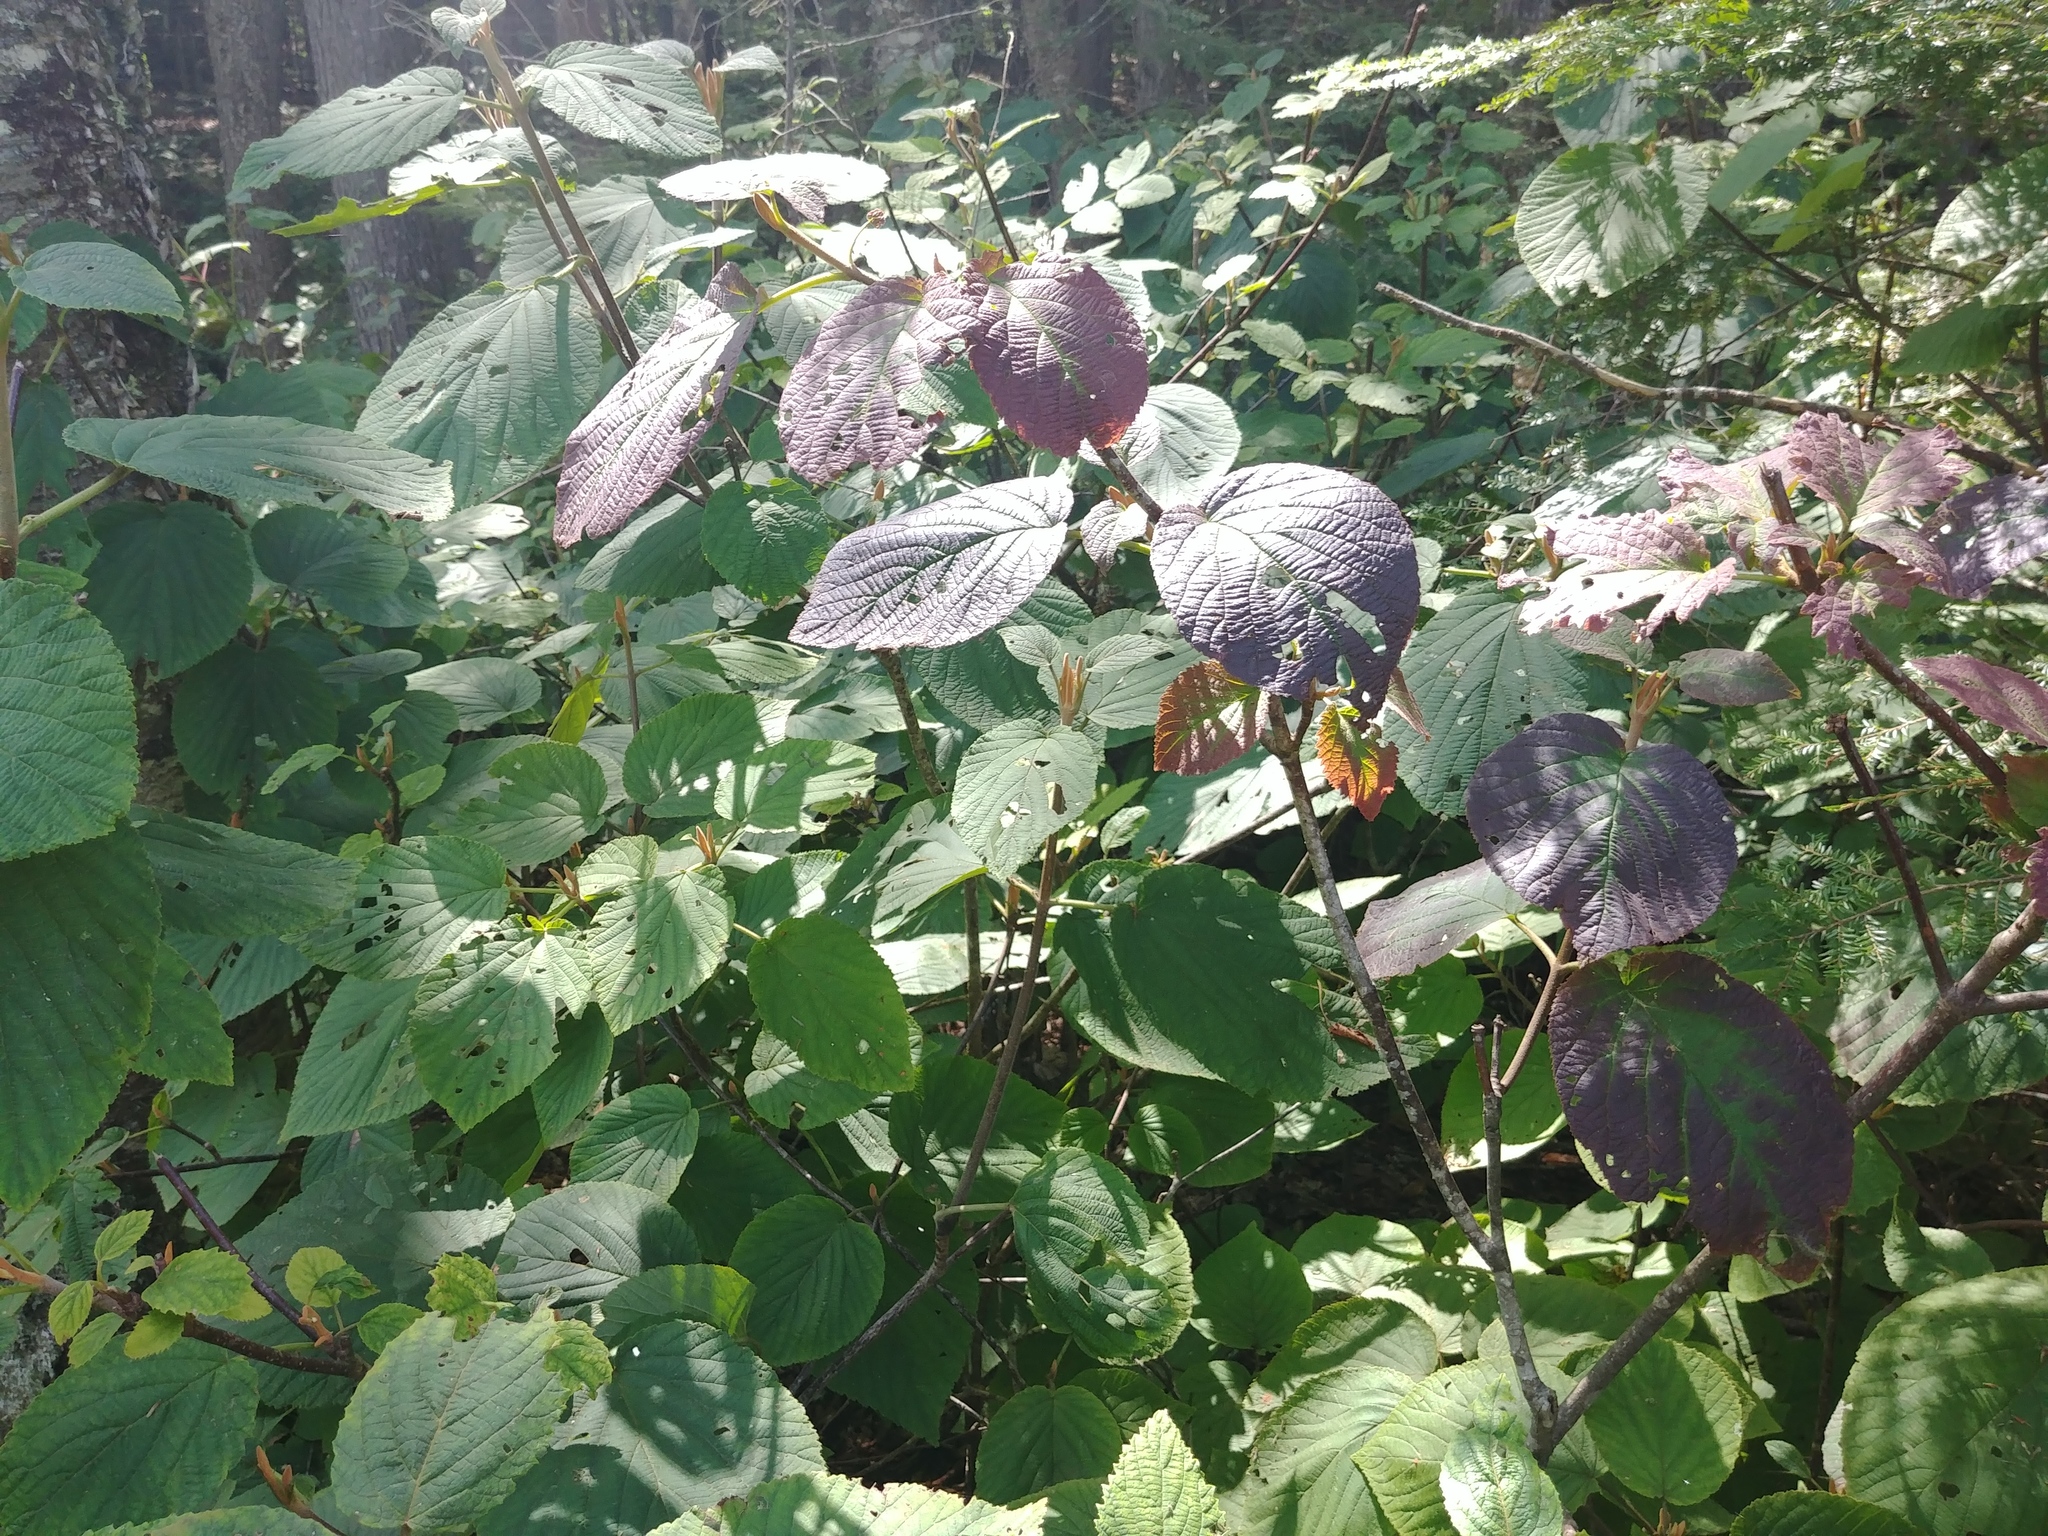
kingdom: Plantae
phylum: Tracheophyta
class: Magnoliopsida
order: Dipsacales
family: Viburnaceae
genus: Viburnum
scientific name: Viburnum lantanoides
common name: Hobblebush
